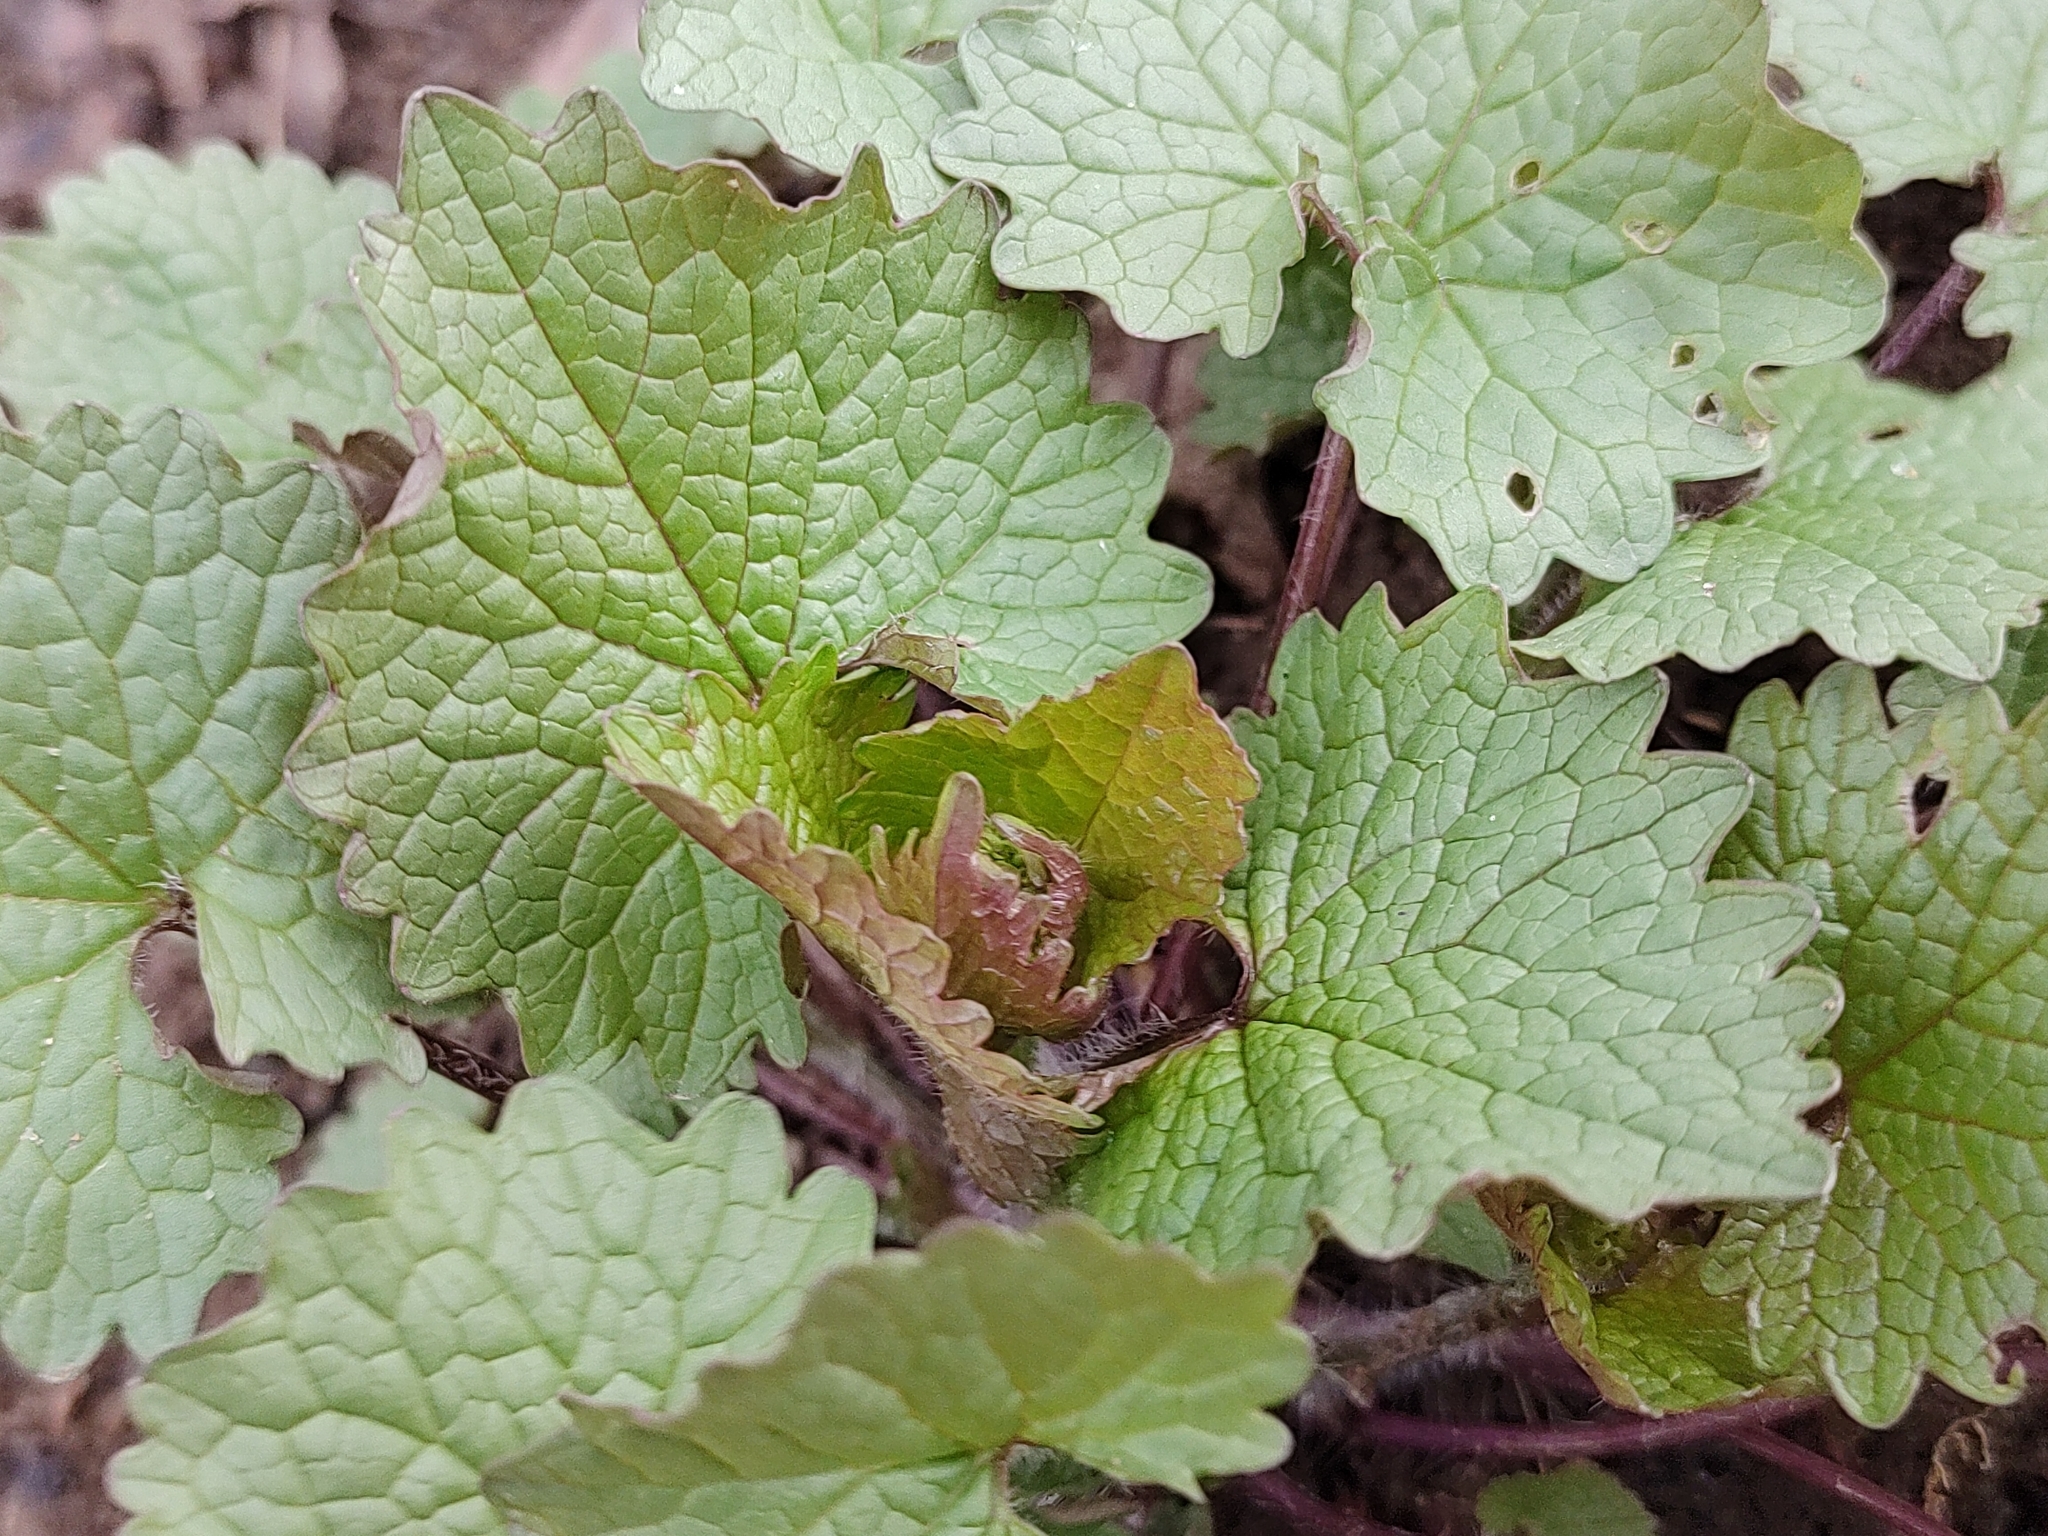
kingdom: Plantae
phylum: Tracheophyta
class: Magnoliopsida
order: Brassicales
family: Brassicaceae
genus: Alliaria
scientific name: Alliaria petiolata
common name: Garlic mustard
